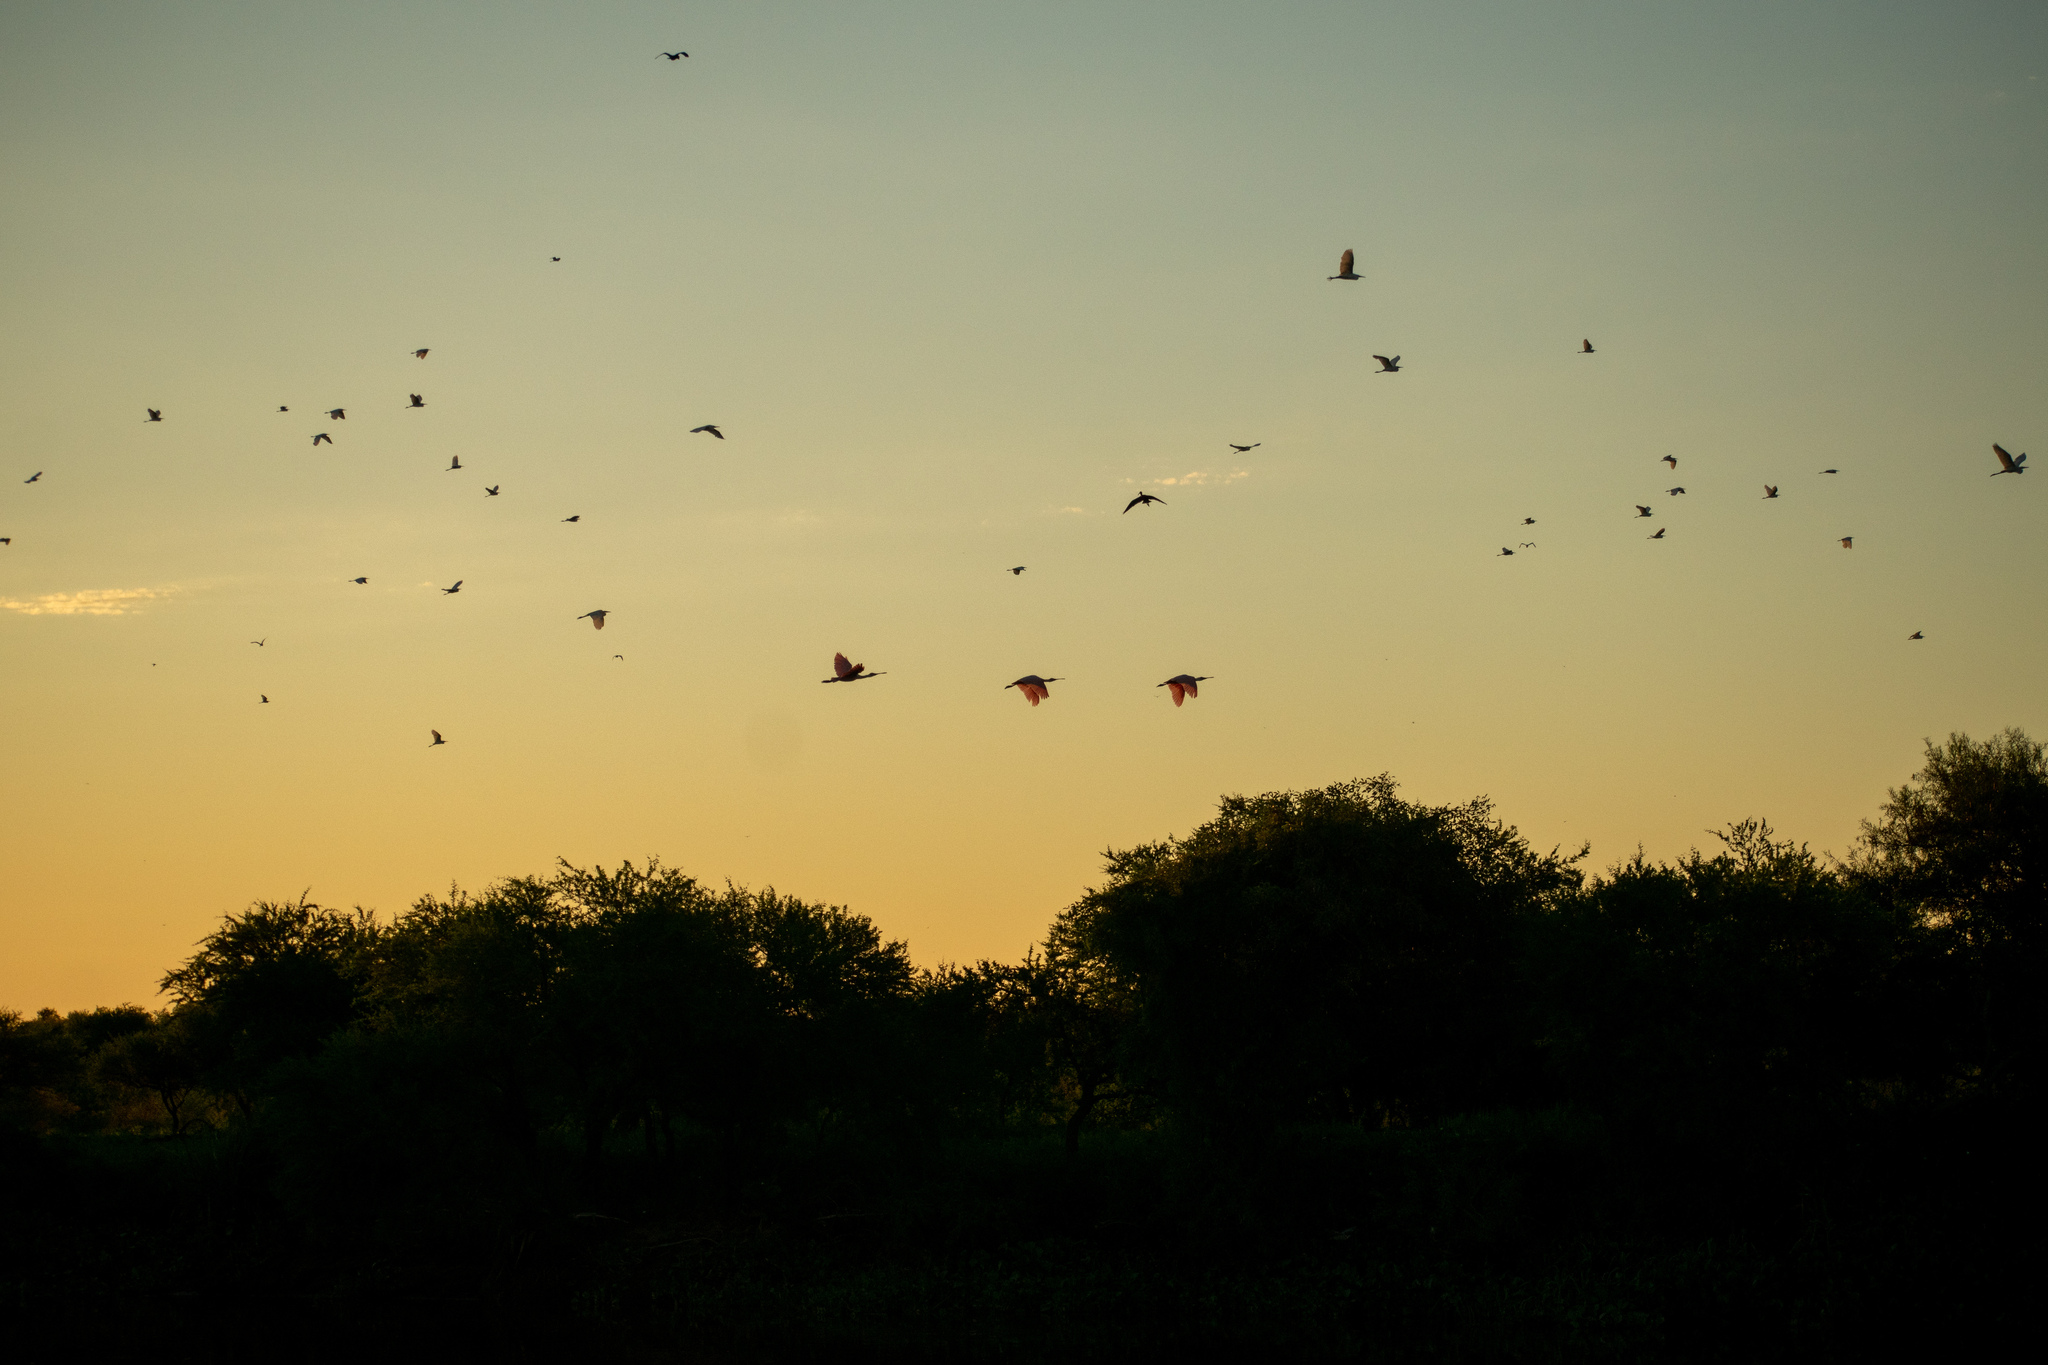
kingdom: Animalia
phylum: Chordata
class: Aves
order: Pelecaniformes
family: Threskiornithidae
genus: Platalea
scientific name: Platalea ajaja
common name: Roseate spoonbill
